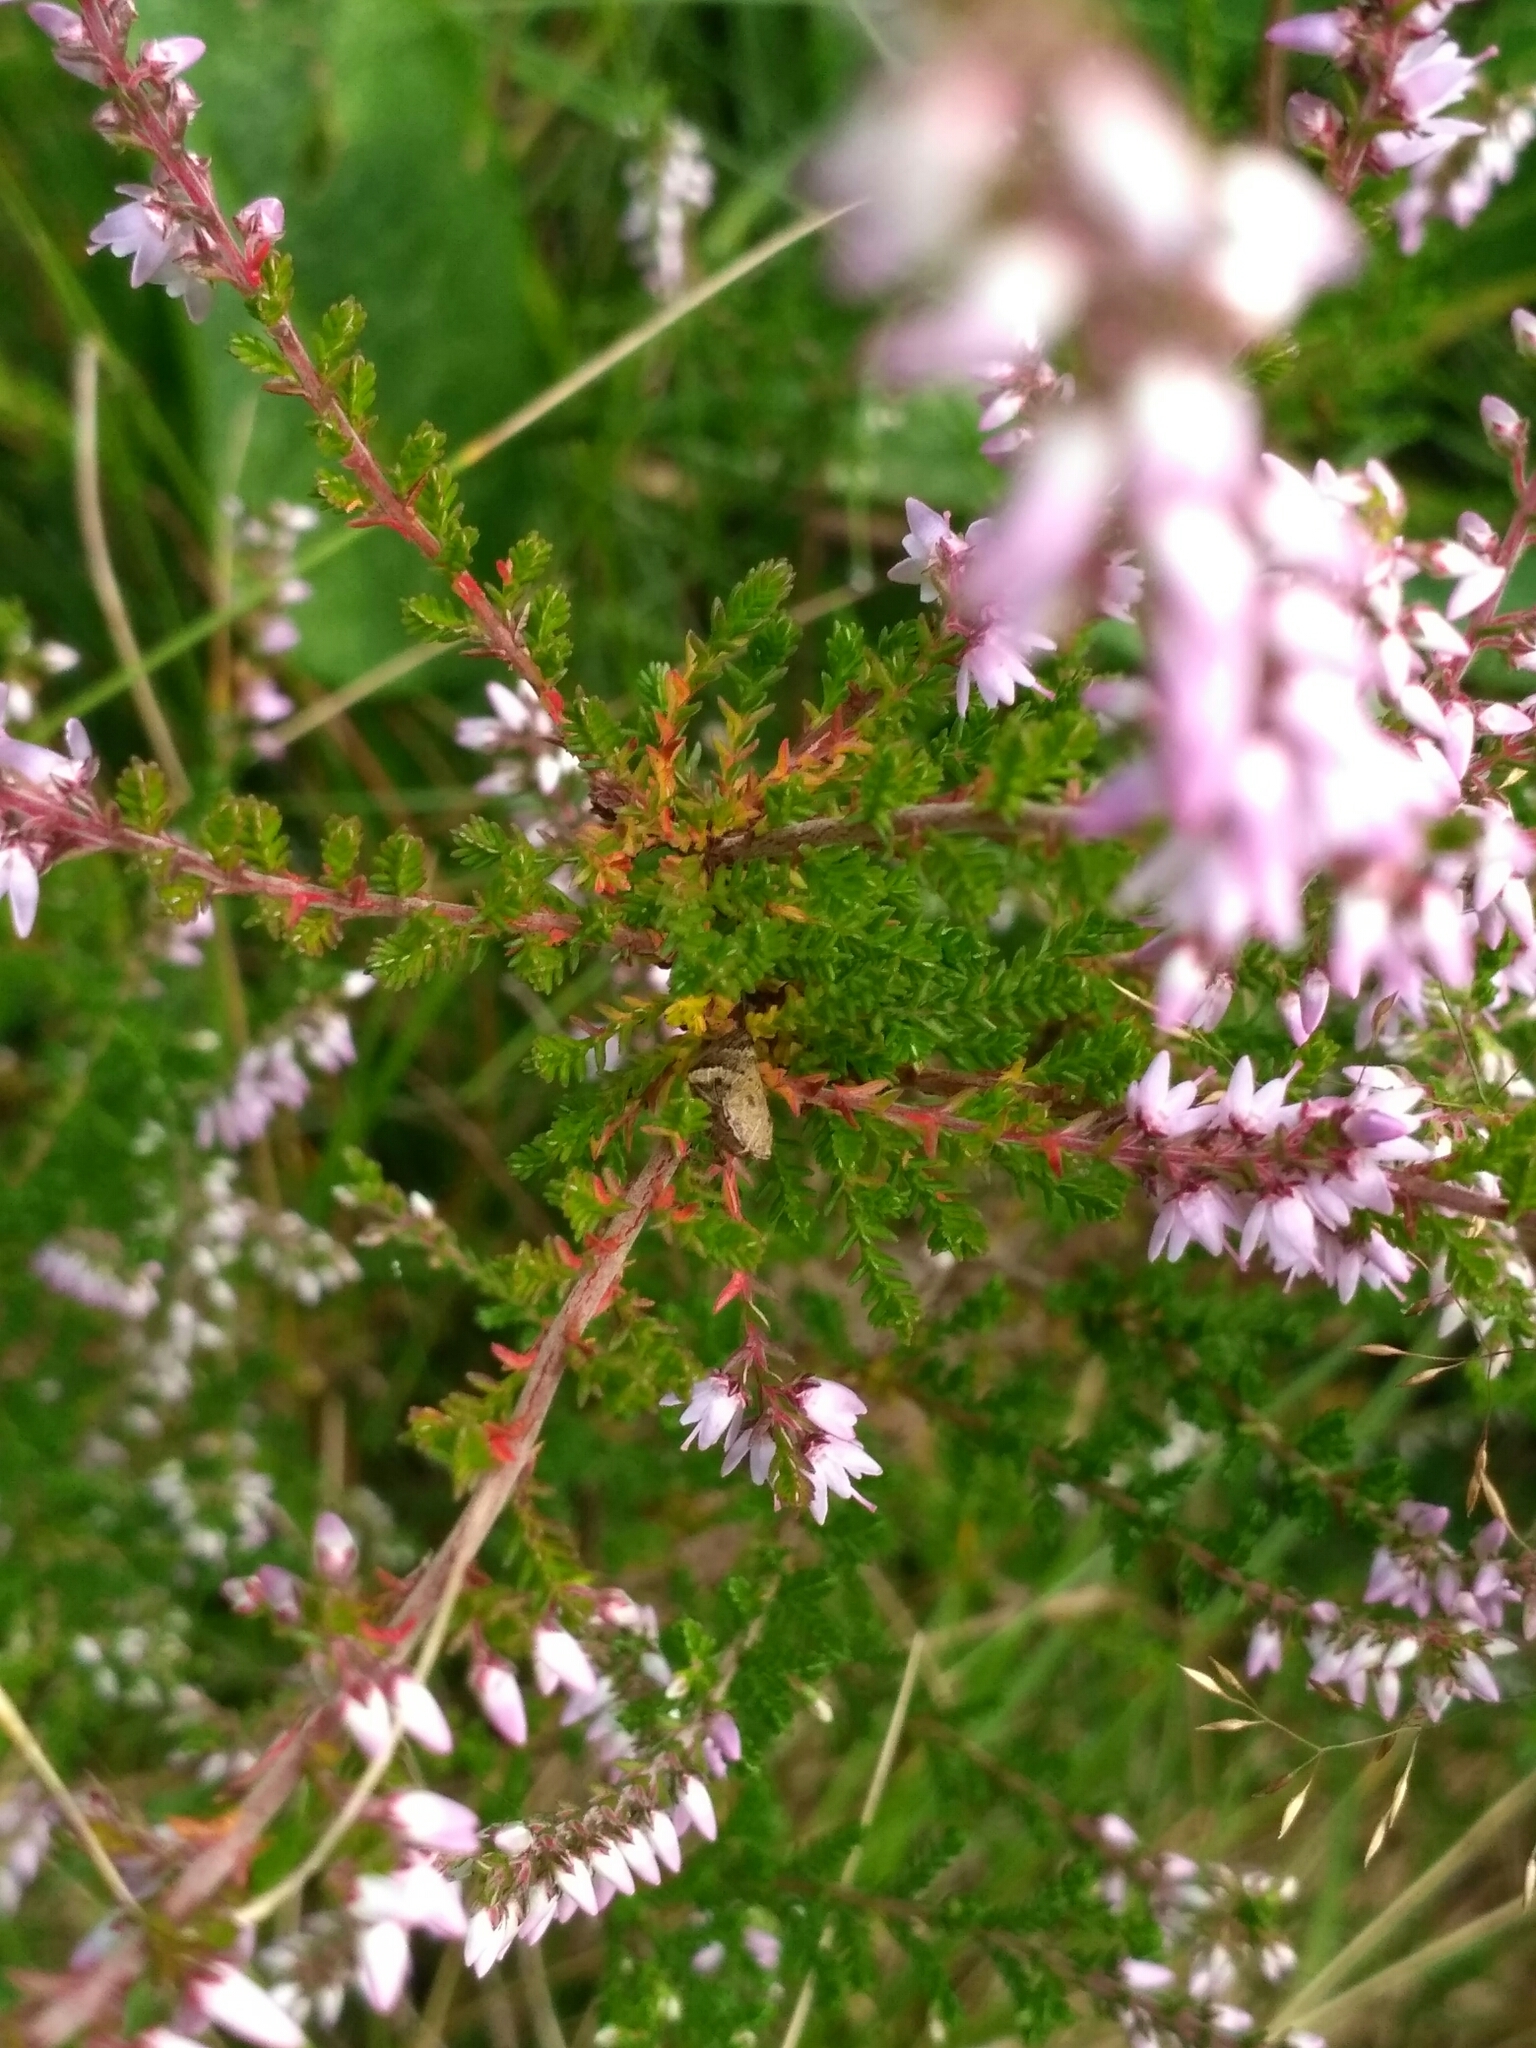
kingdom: Plantae
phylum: Tracheophyta
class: Magnoliopsida
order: Ericales
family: Ericaceae
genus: Calluna
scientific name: Calluna vulgaris
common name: Heather
